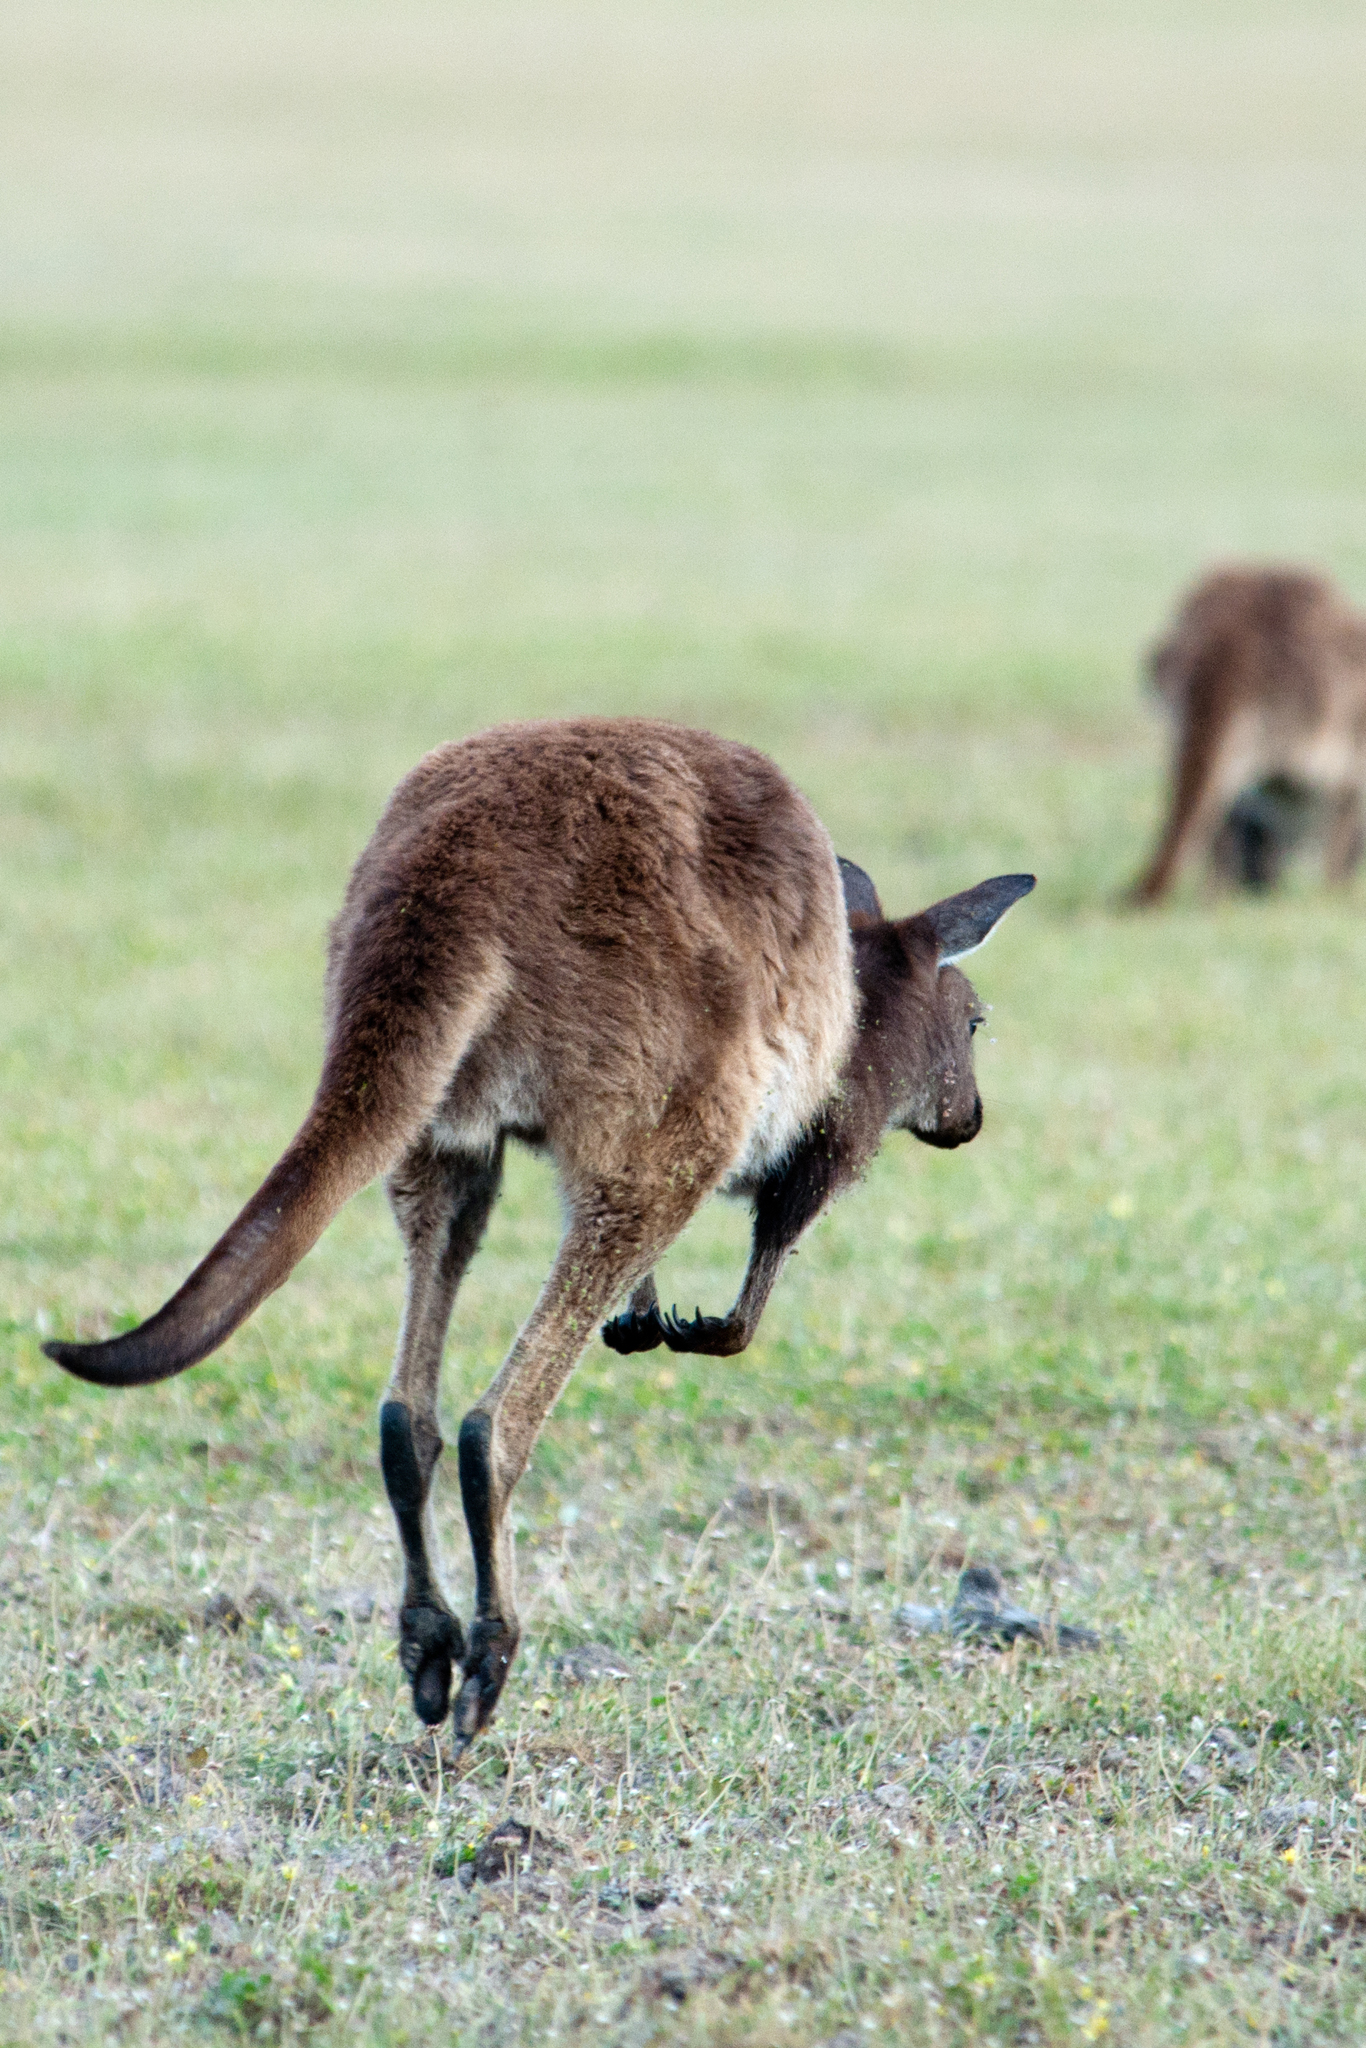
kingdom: Animalia
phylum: Chordata
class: Mammalia
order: Diprotodontia
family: Macropodidae
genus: Macropus
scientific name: Macropus fuliginosus
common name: Western grey kangaroo
